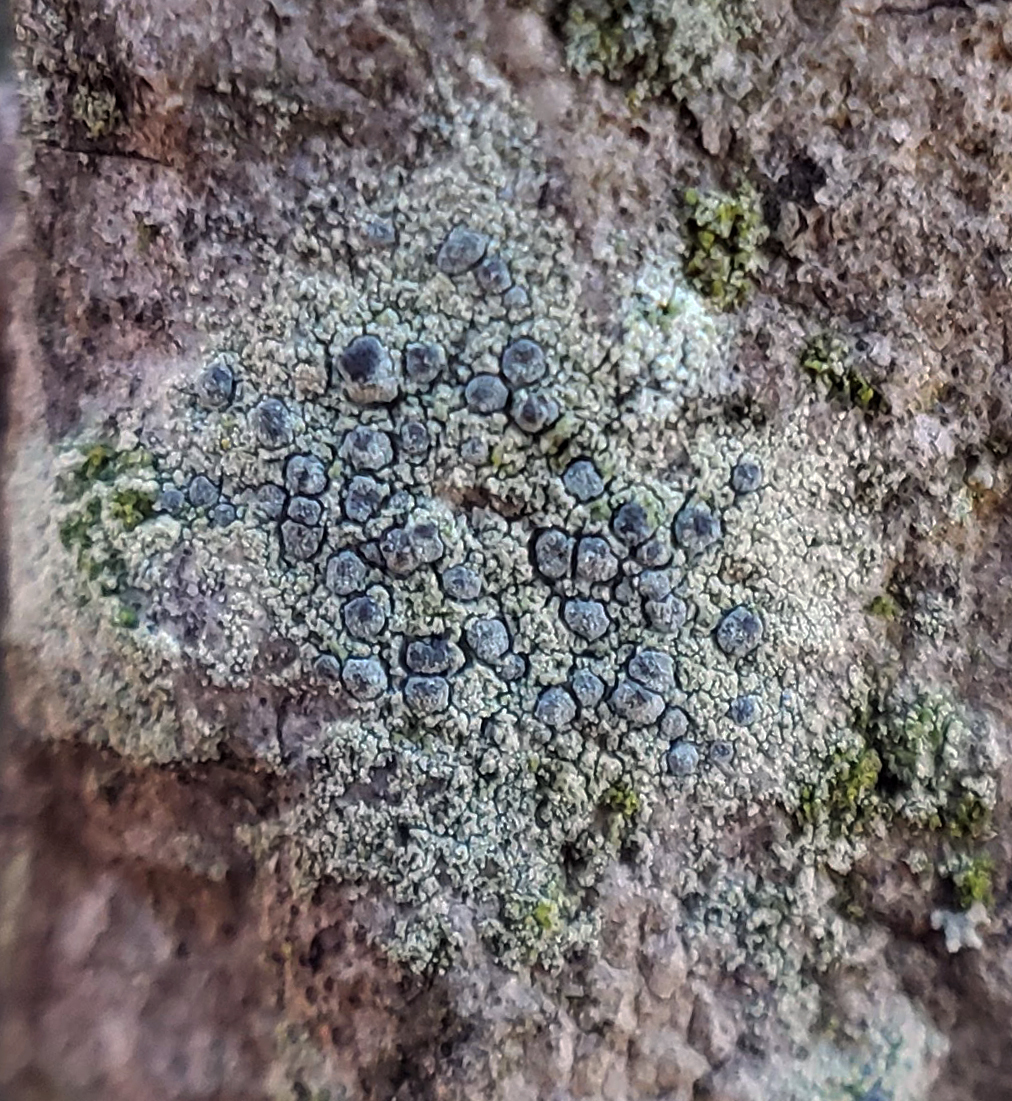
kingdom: Fungi
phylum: Ascomycota
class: Arthoniomycetes
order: Arthoniales
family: Chrysotrichaceae
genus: Chrysothrix
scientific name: Chrysothrix caesia
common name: Frosted comma lichen
